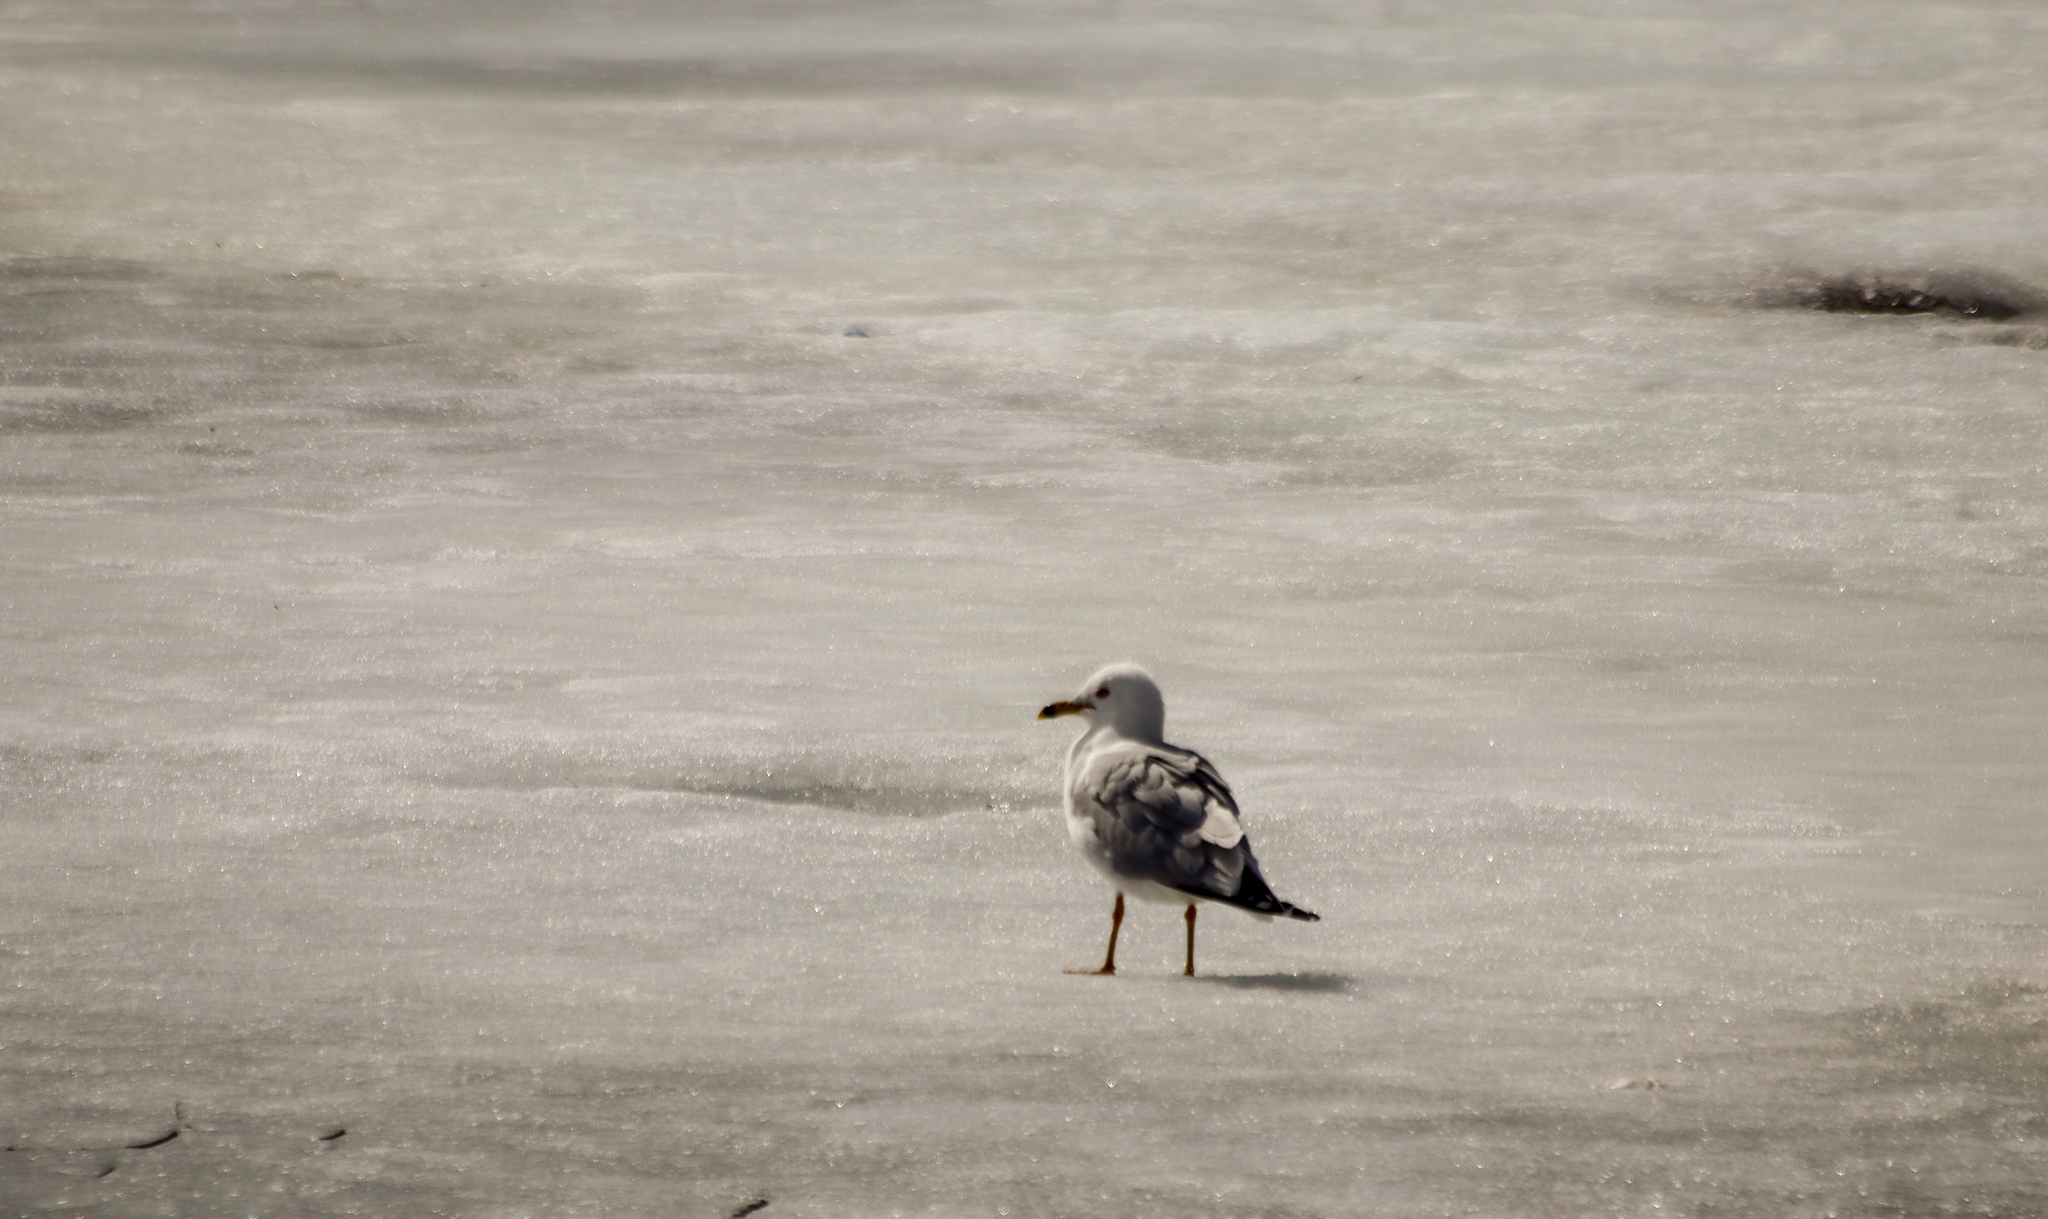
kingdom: Animalia
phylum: Chordata
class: Aves
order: Charadriiformes
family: Laridae
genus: Larus
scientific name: Larus delawarensis
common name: Ring-billed gull
